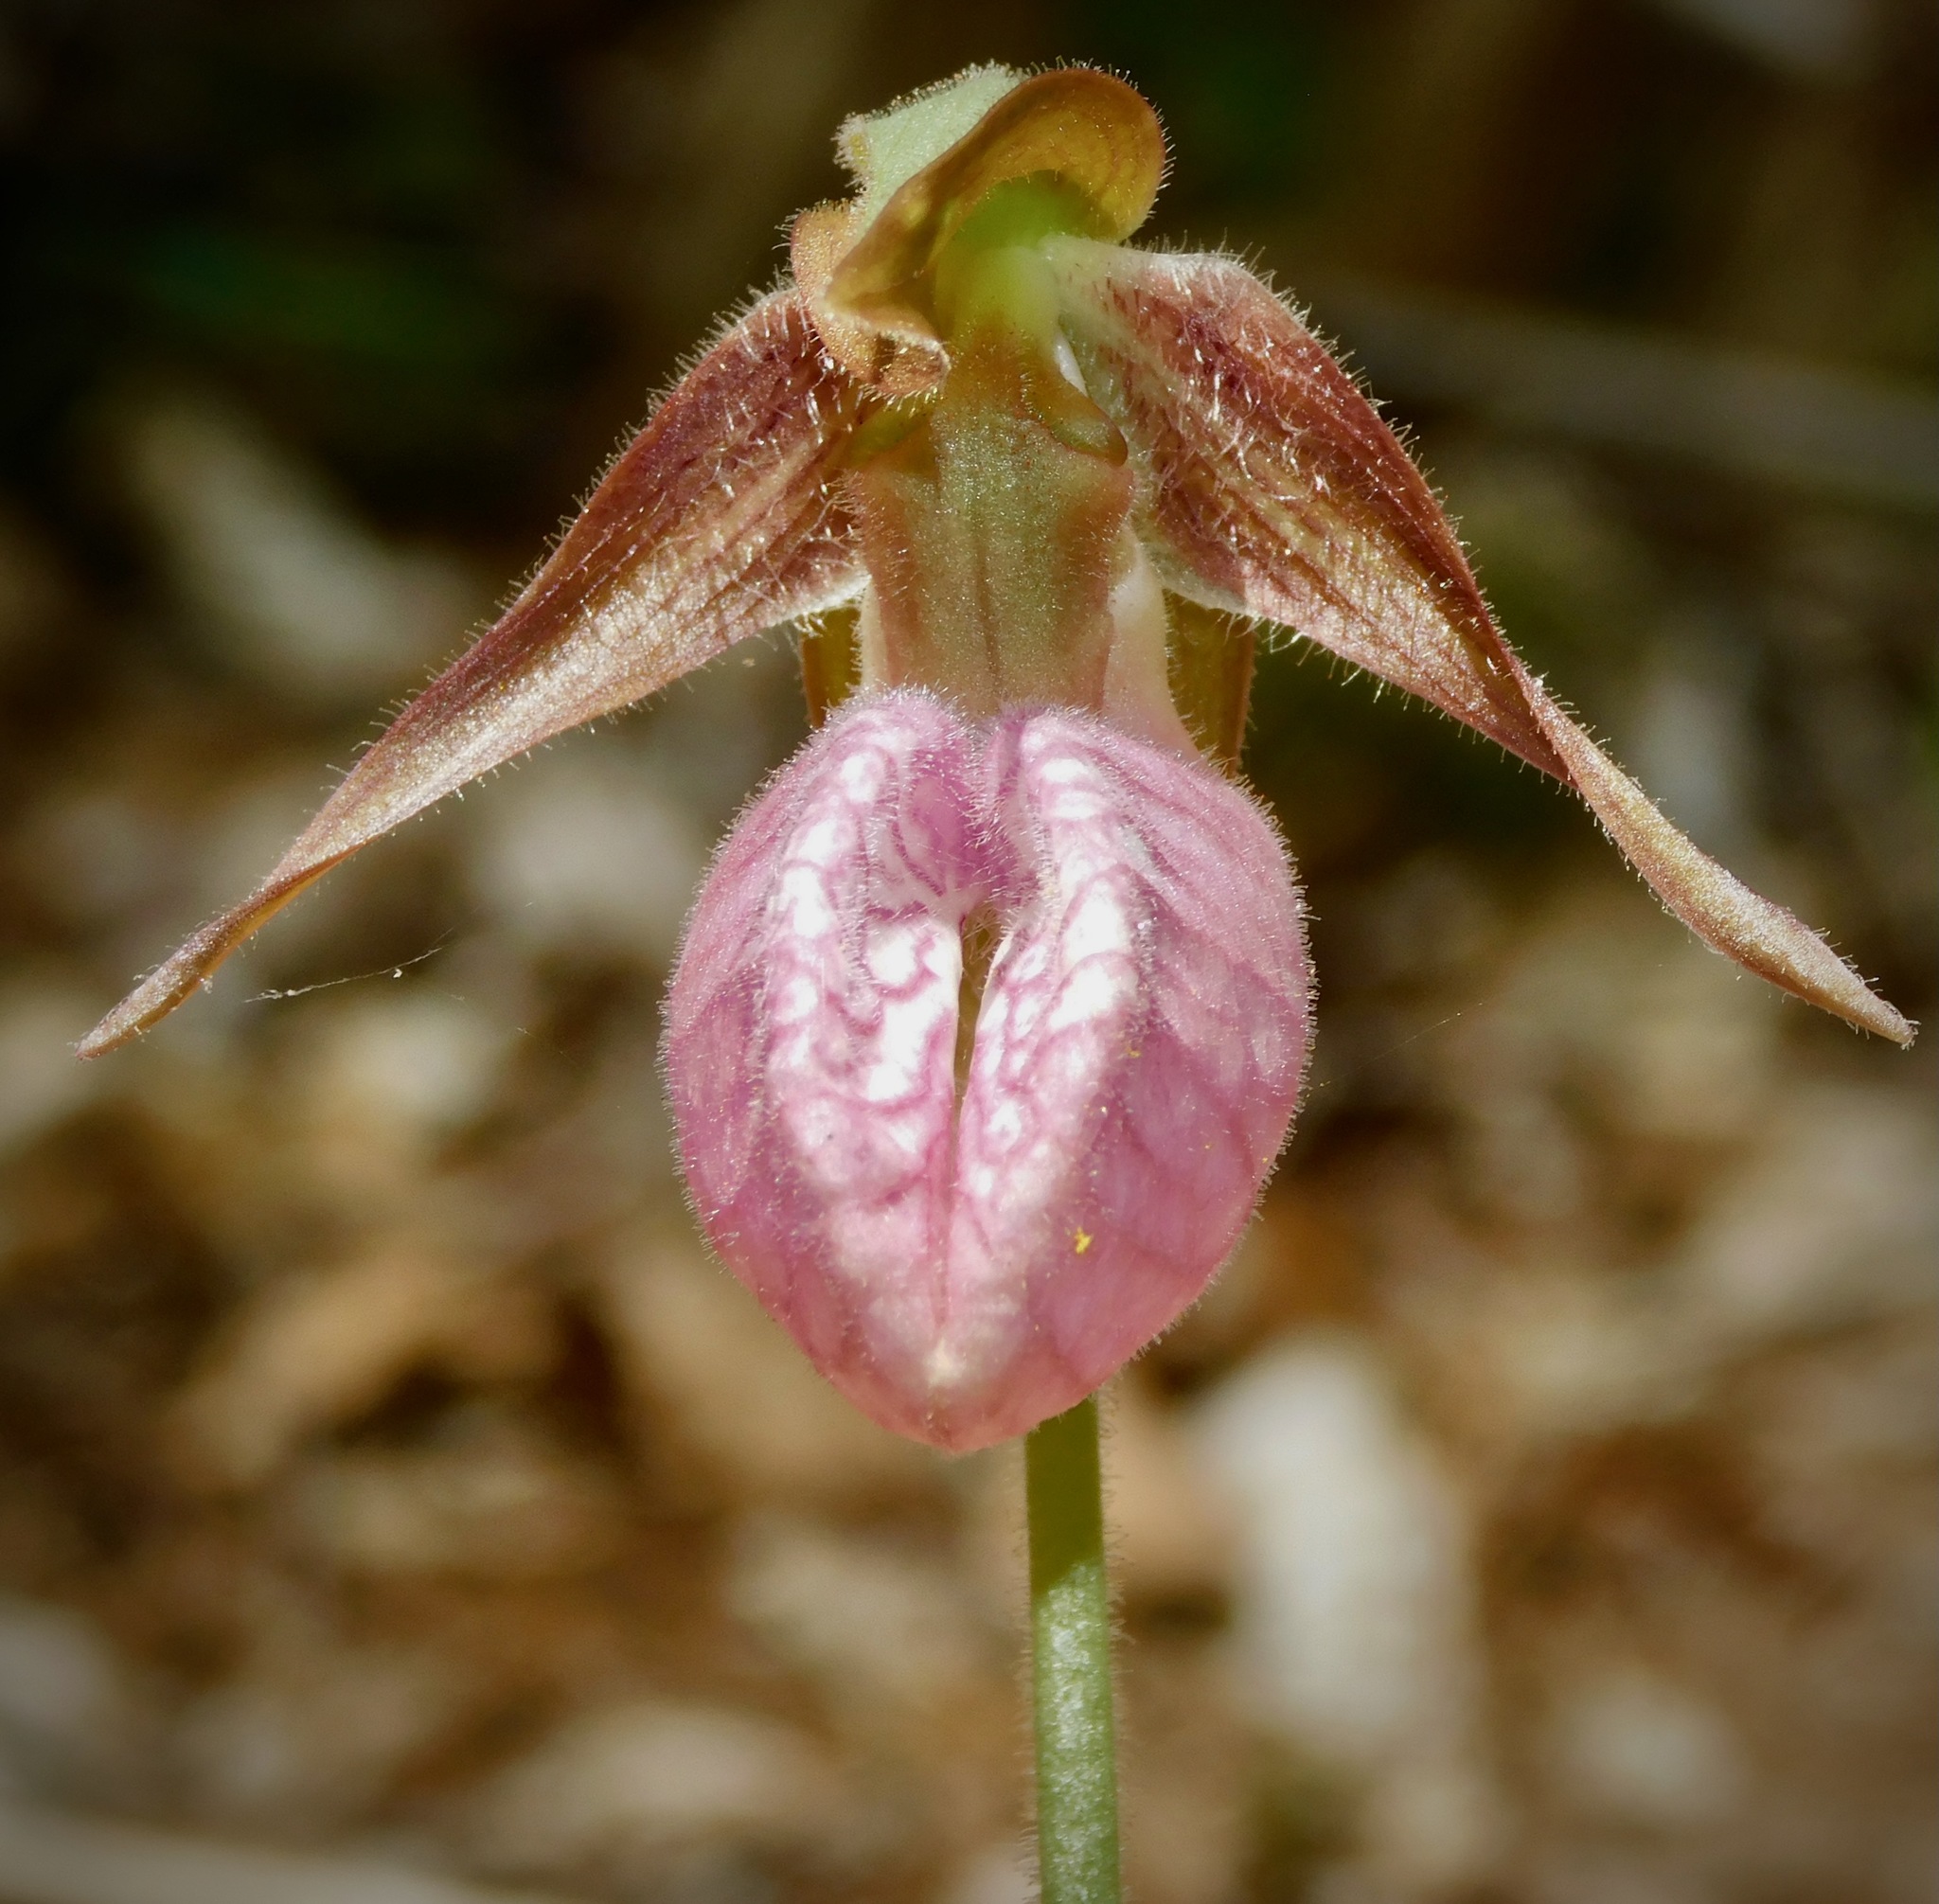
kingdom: Plantae
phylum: Tracheophyta
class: Liliopsida
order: Asparagales
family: Orchidaceae
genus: Cypripedium
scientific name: Cypripedium acaule
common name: Pink lady's-slipper
